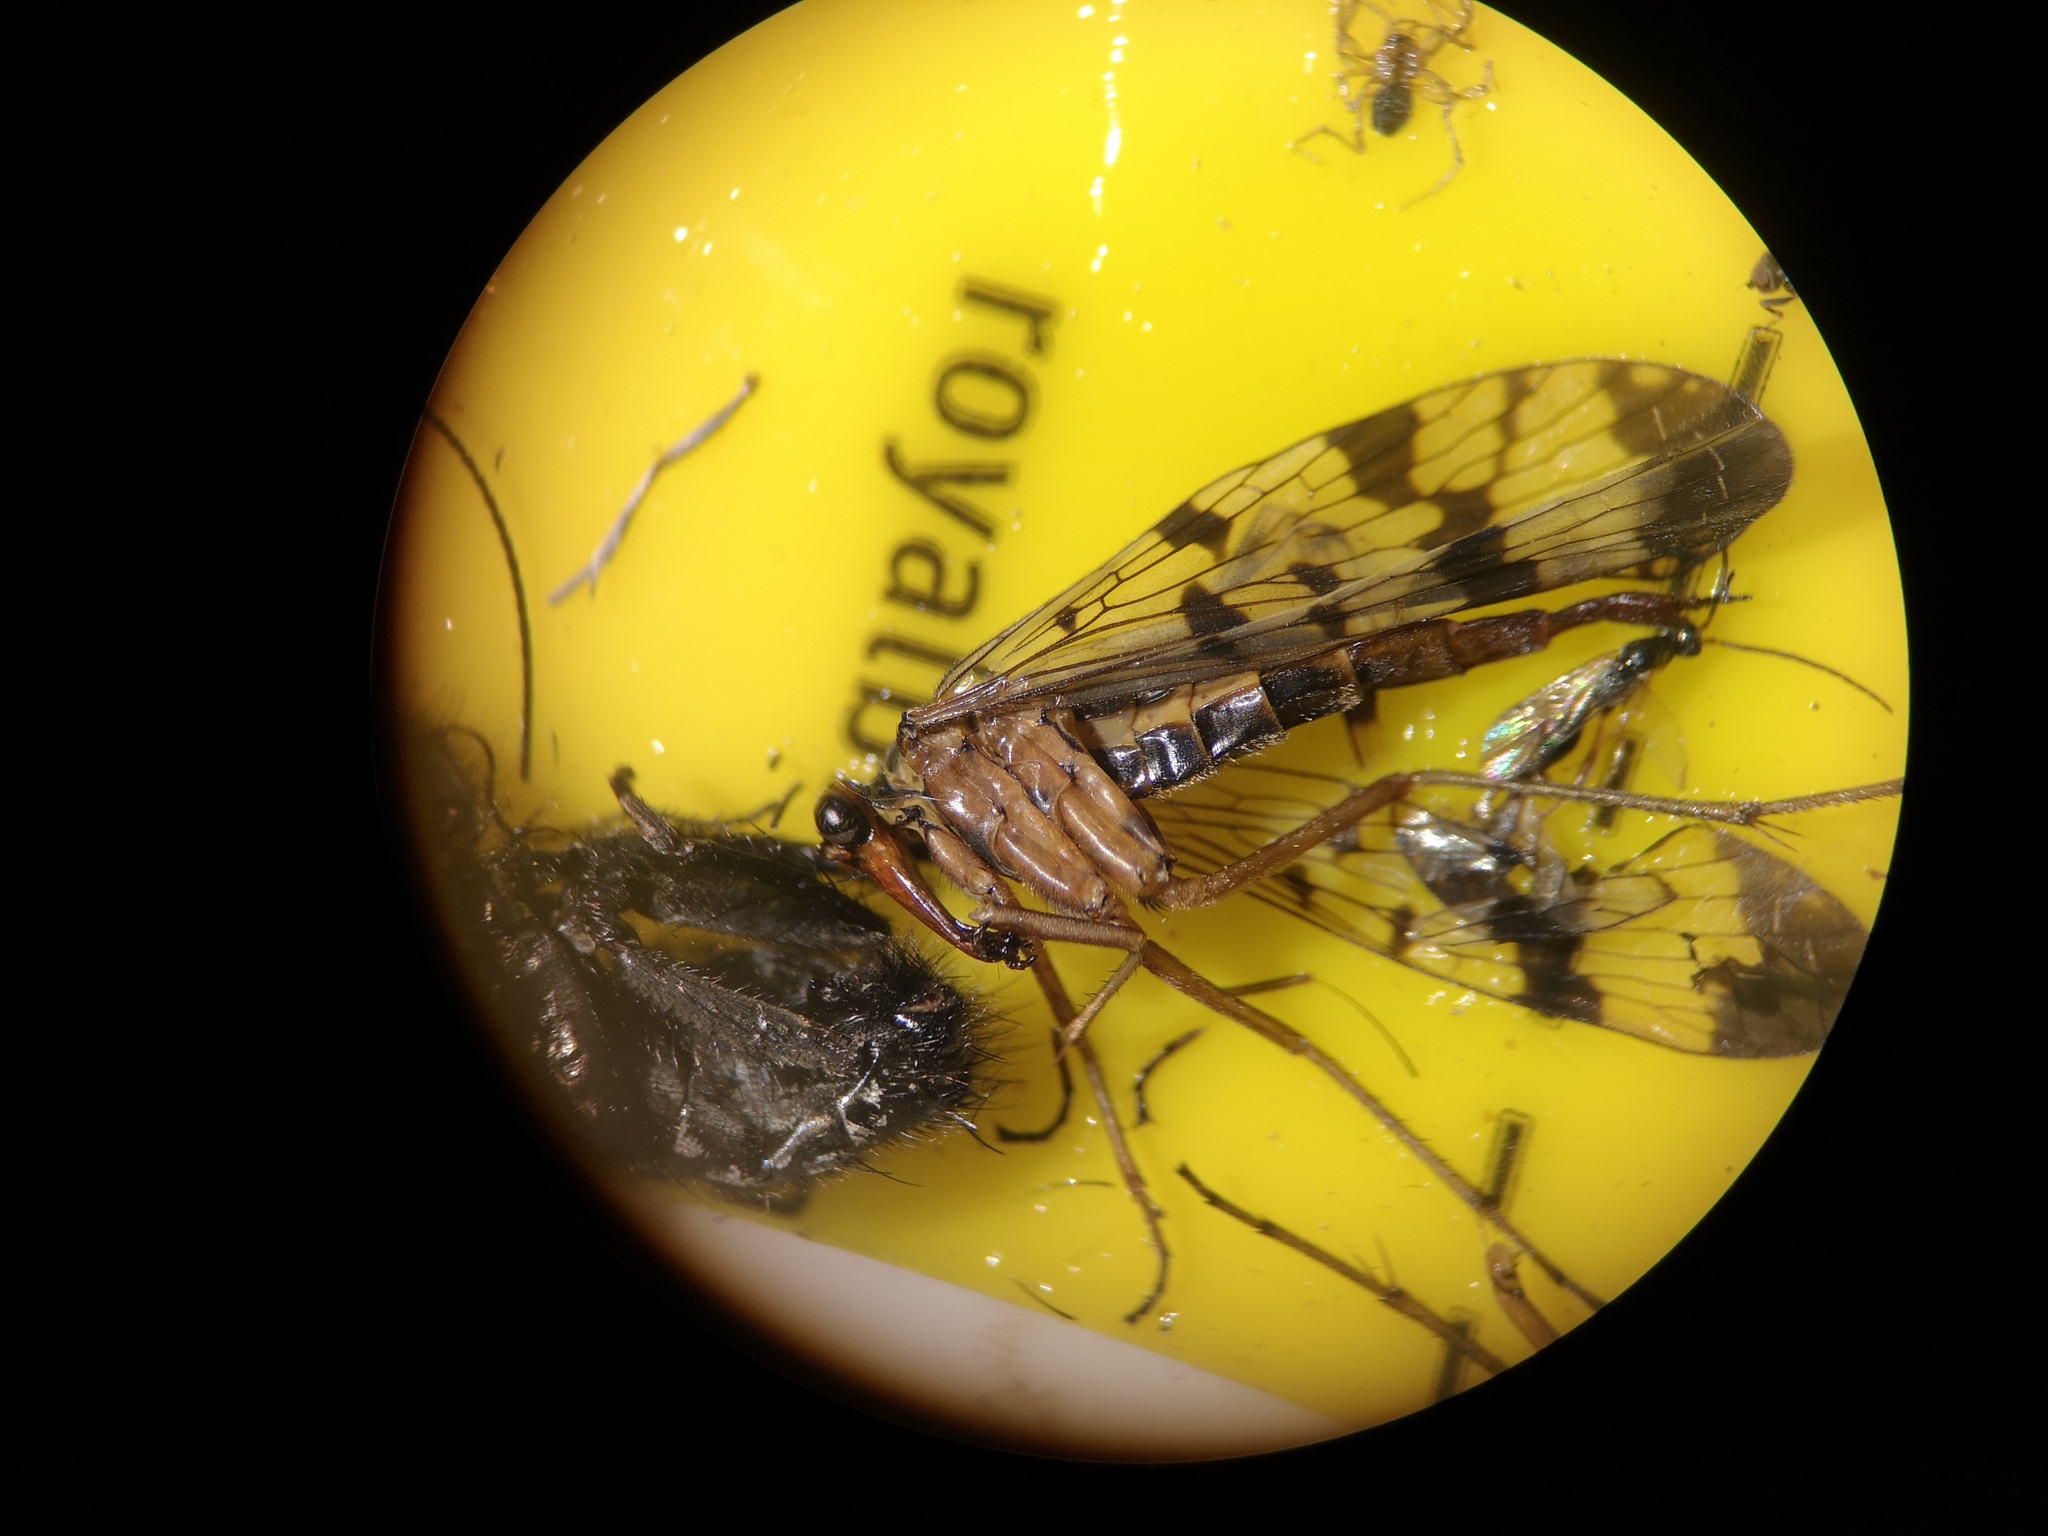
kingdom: Animalia
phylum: Arthropoda
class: Insecta
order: Mecoptera
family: Panorpidae
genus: Panorpa
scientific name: Panorpa communis
